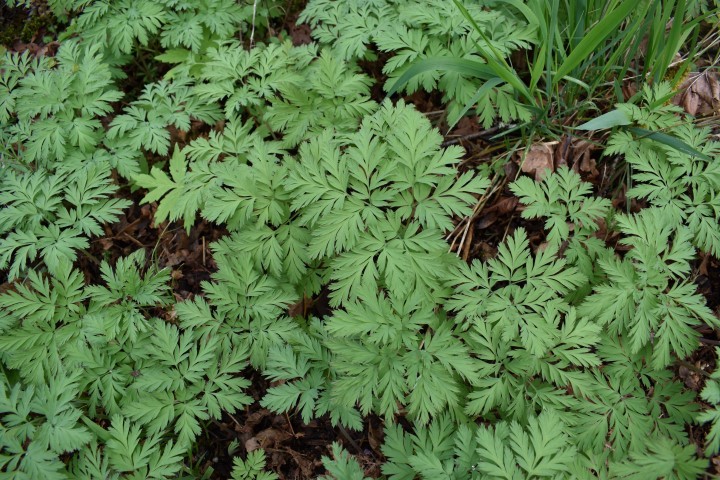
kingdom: Plantae
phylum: Tracheophyta
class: Magnoliopsida
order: Ranunculales
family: Papaveraceae
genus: Dicentra
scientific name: Dicentra formosa
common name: Bleeding-heart
